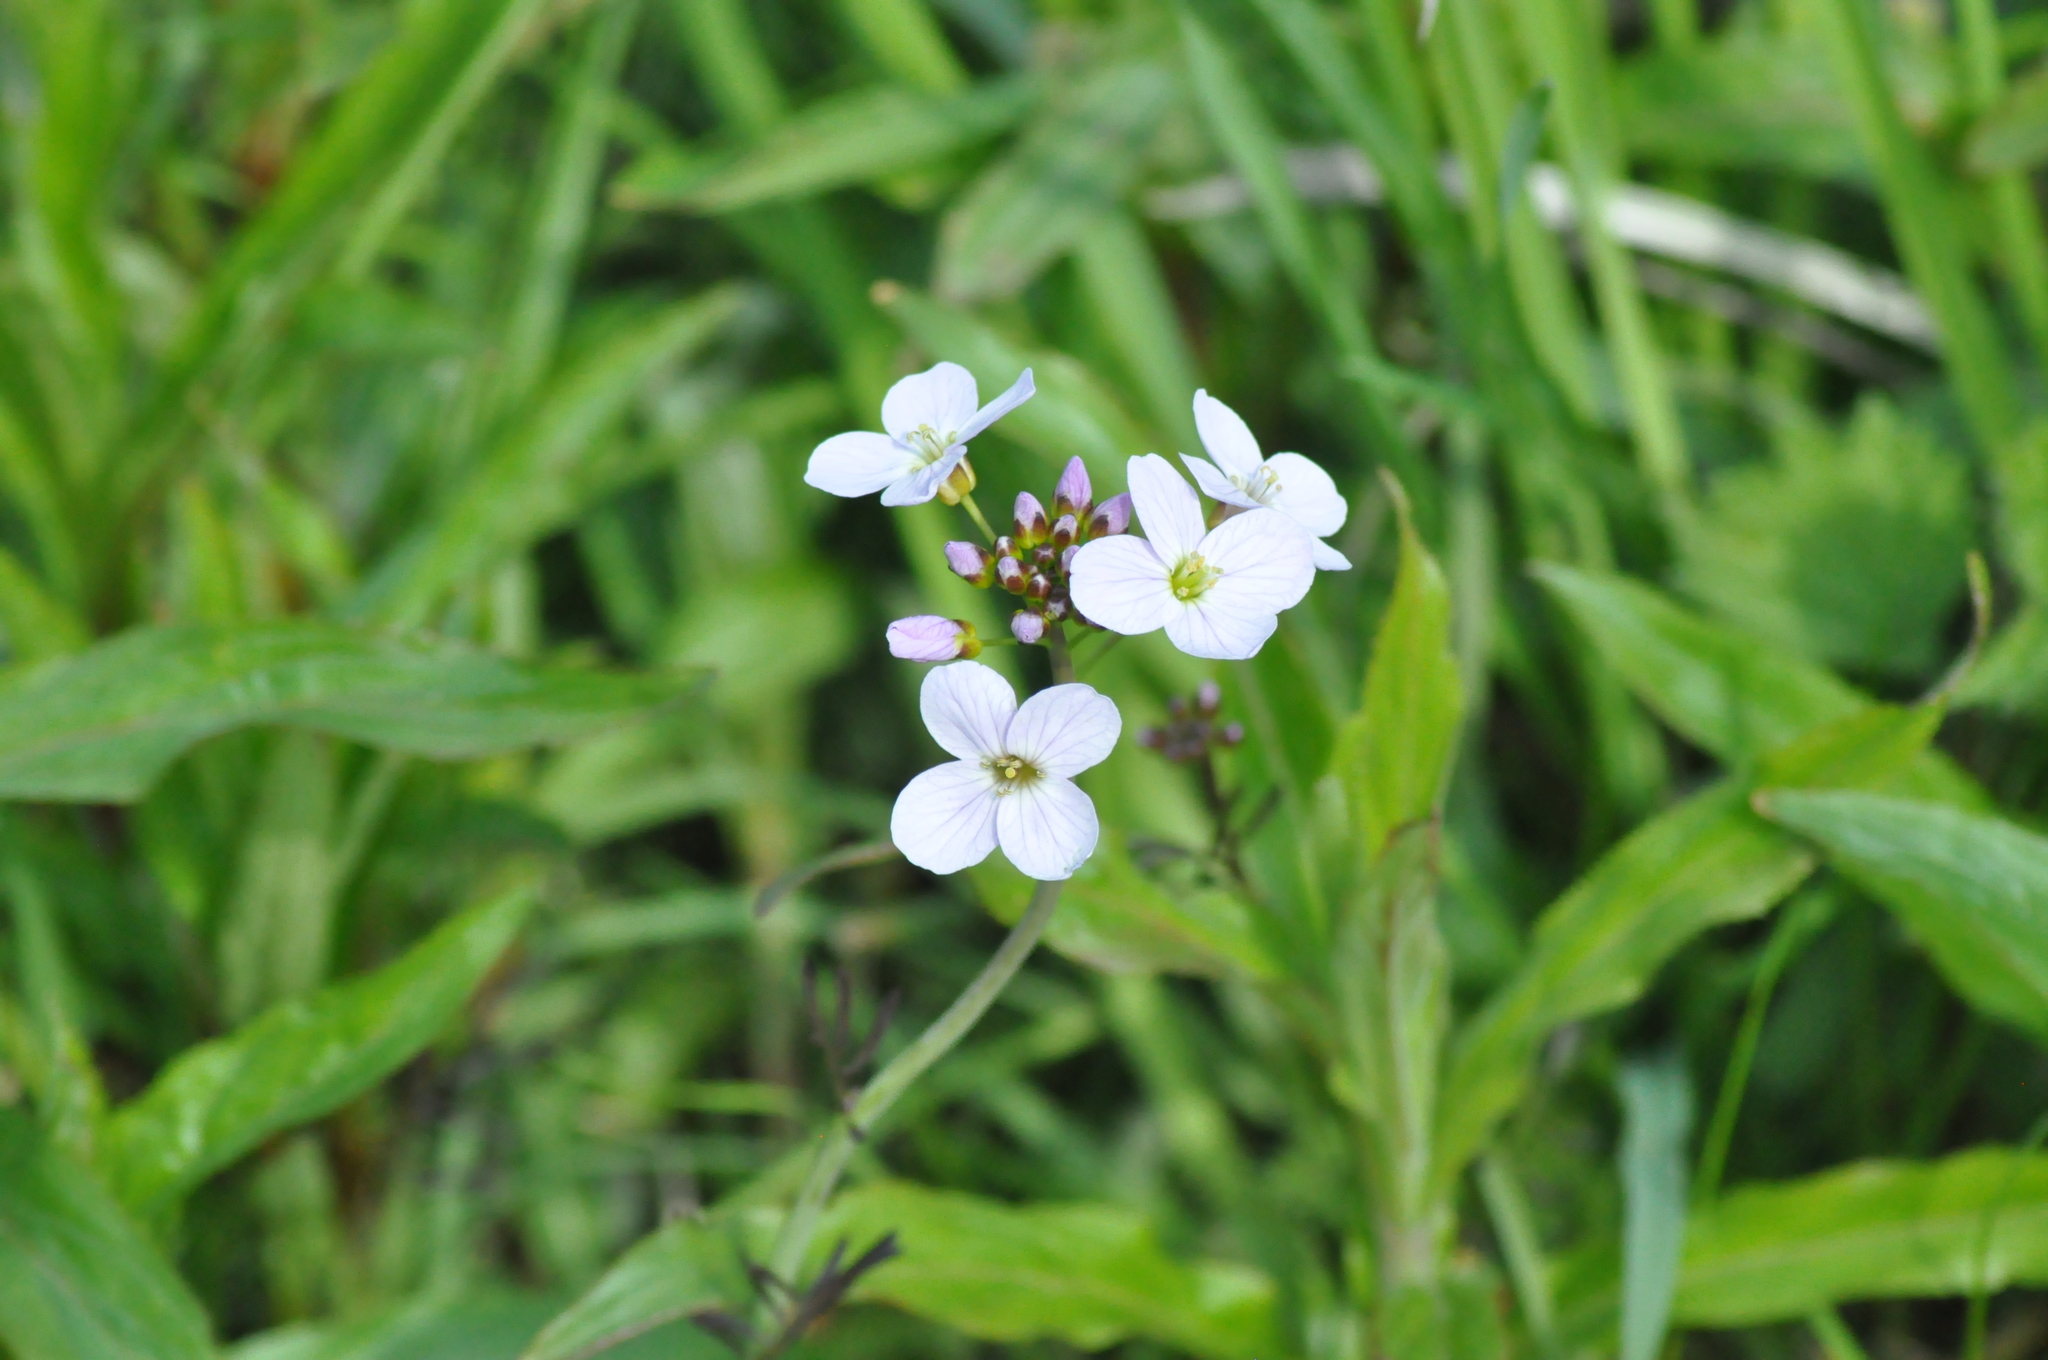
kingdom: Plantae
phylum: Tracheophyta
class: Magnoliopsida
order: Brassicales
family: Brassicaceae
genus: Cardamine
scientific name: Cardamine pratensis
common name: Cuckoo flower
